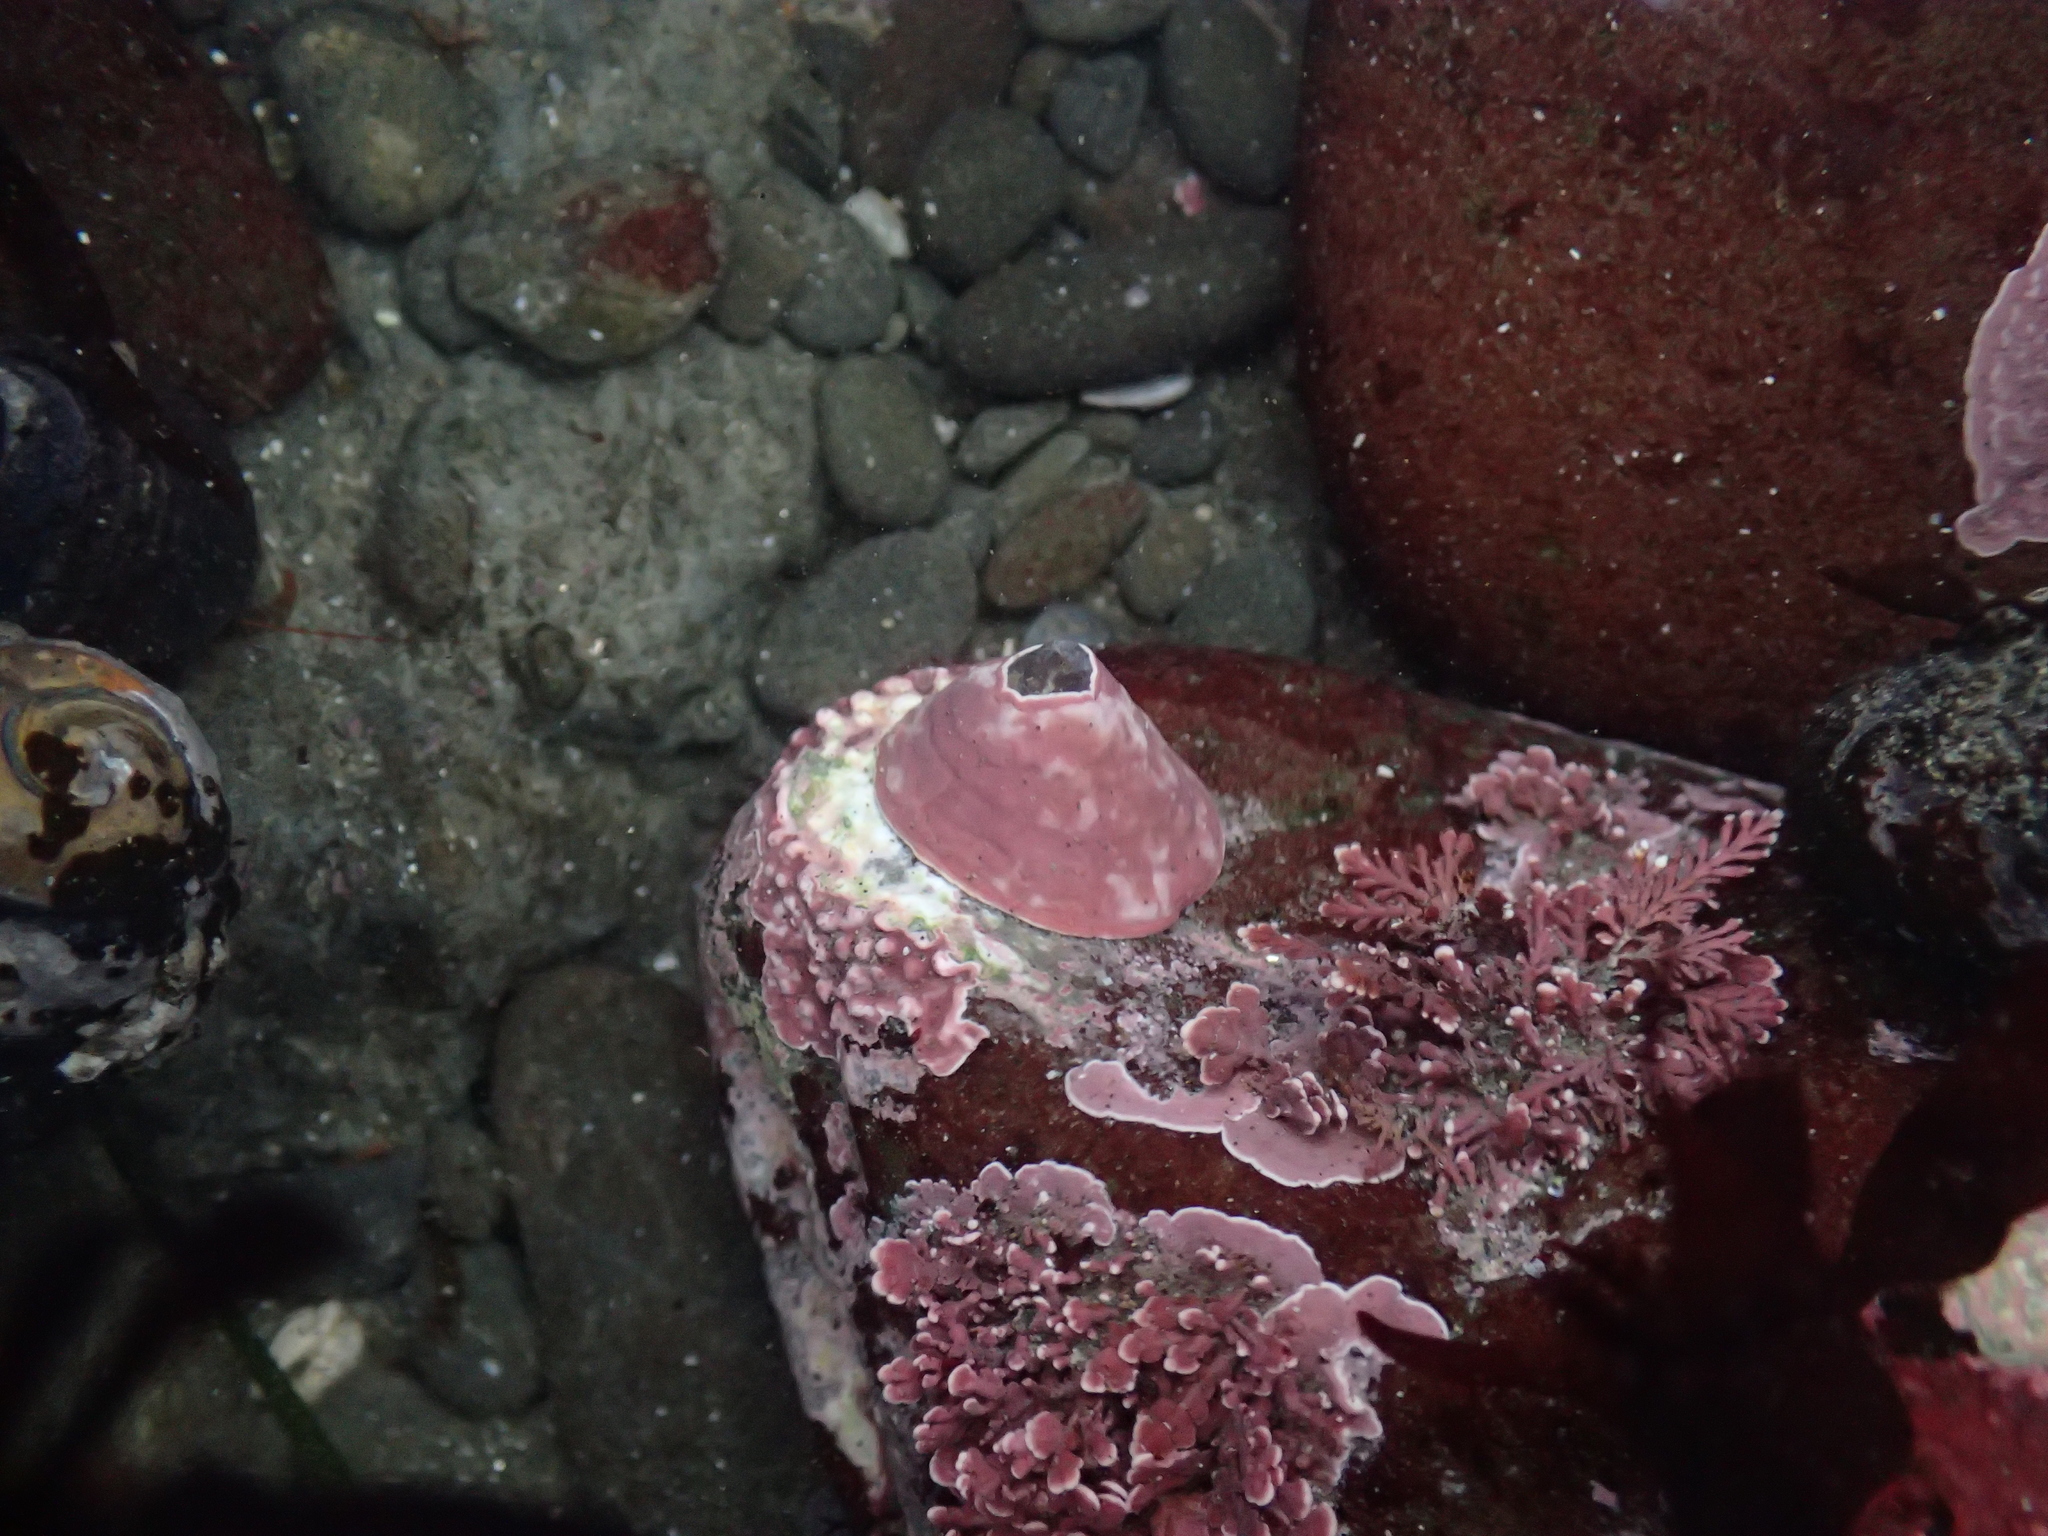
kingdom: Animalia
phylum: Mollusca
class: Gastropoda
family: Acmaeidae
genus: Acmaea
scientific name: Acmaea mitra
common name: Pacific white cap limpet
